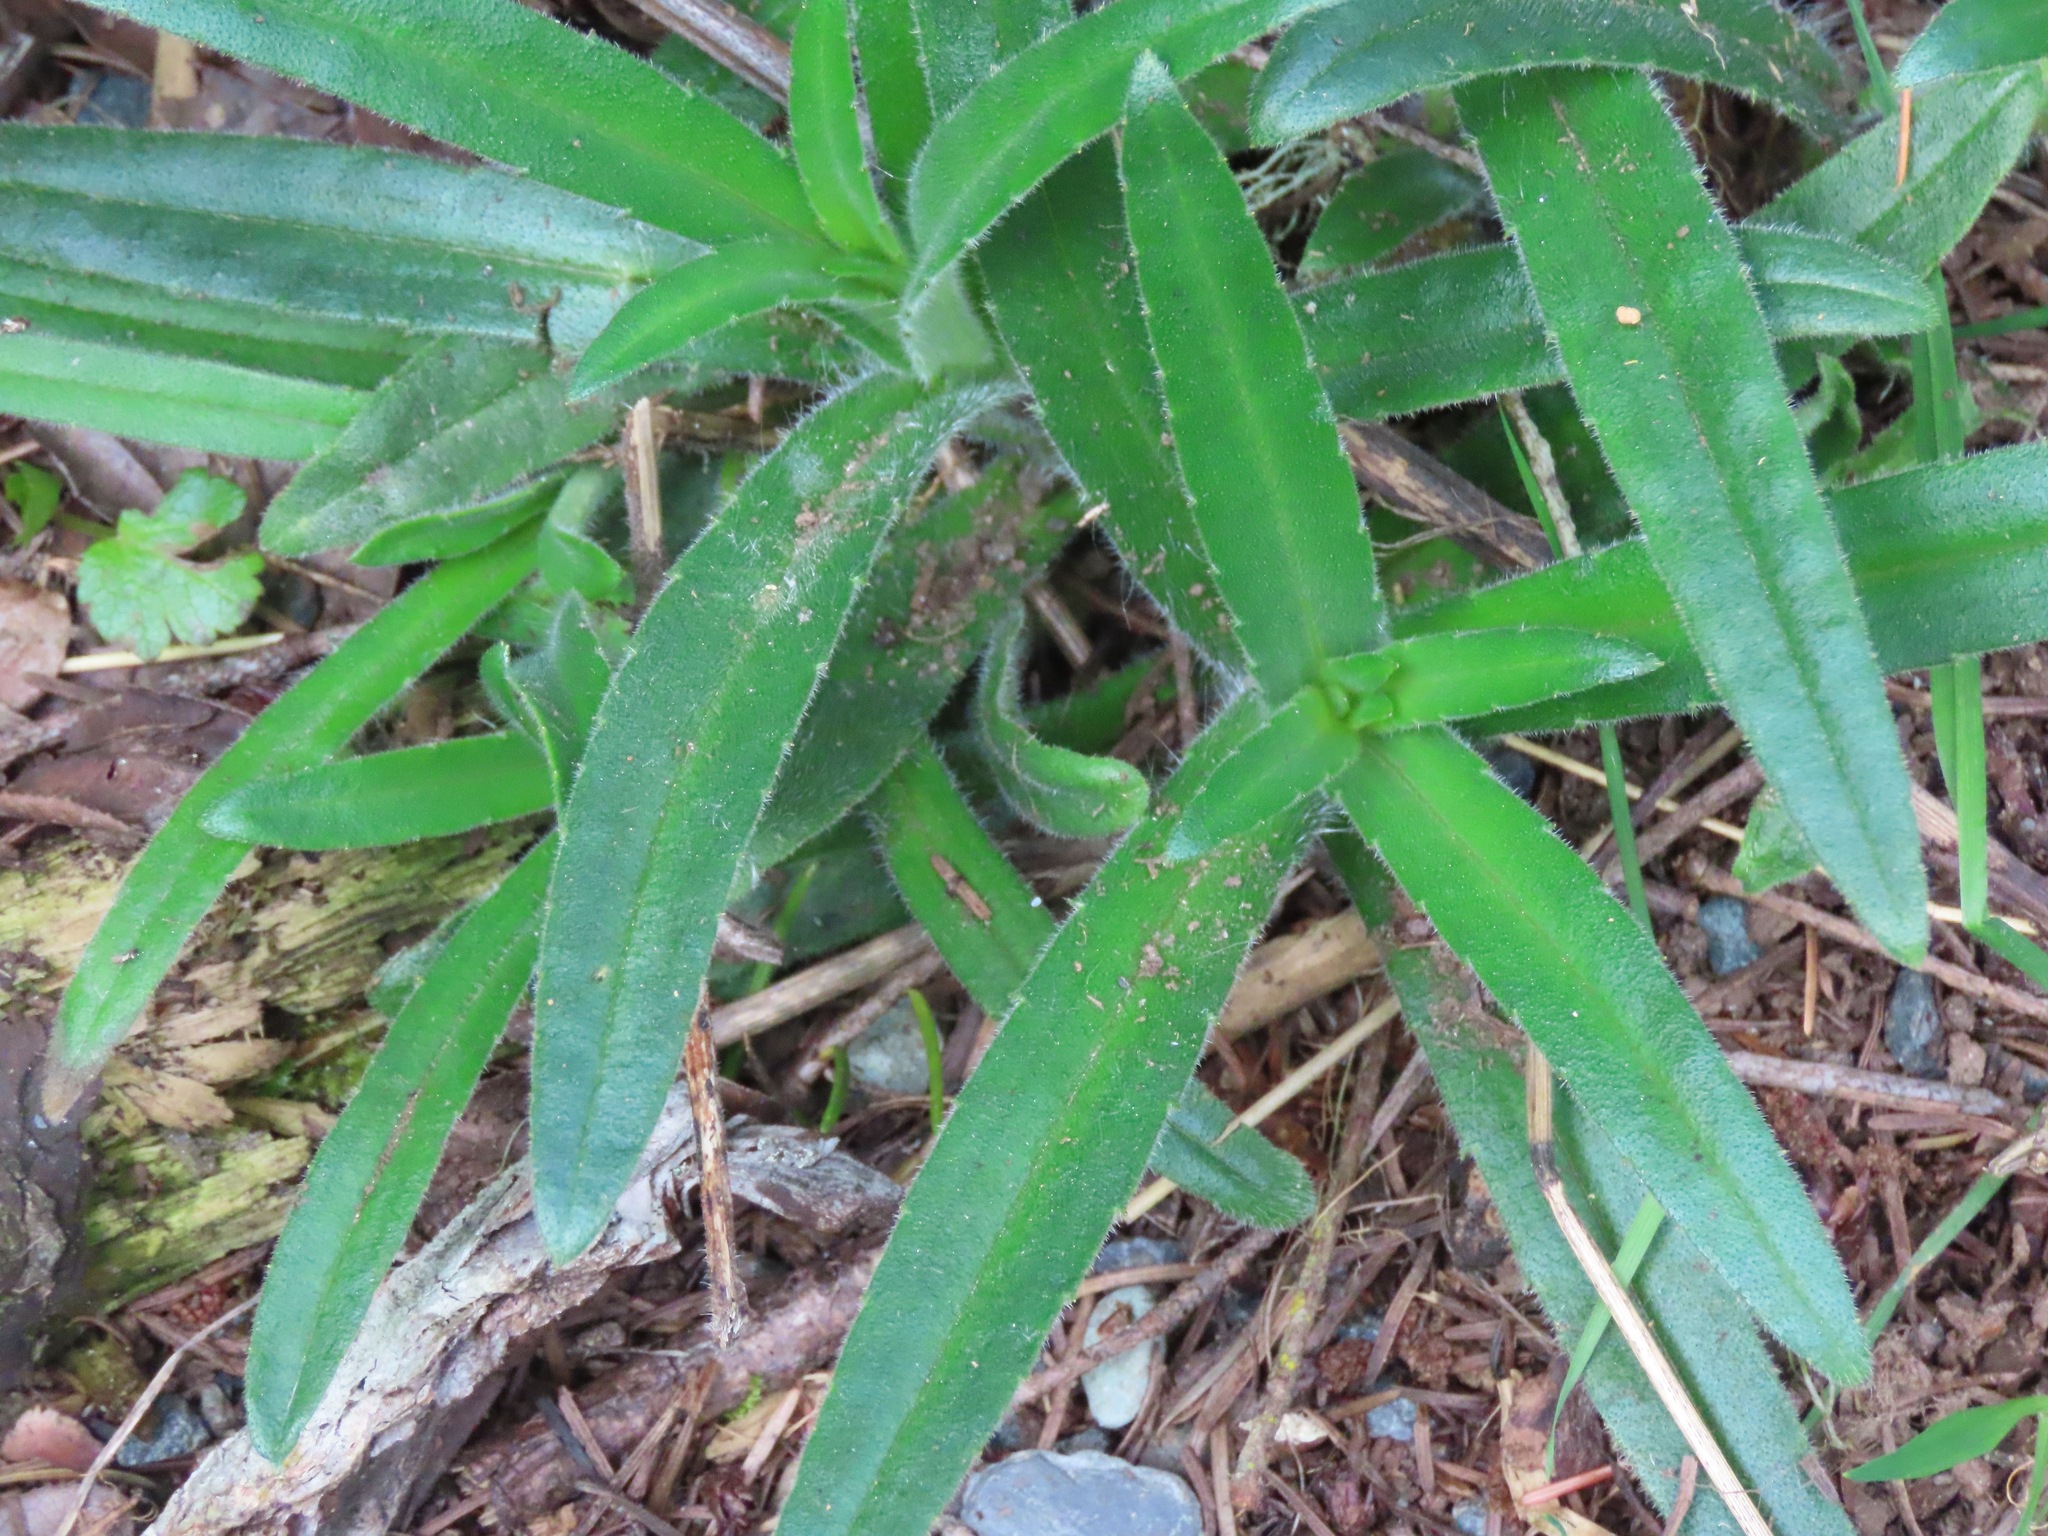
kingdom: Plantae
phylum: Tracheophyta
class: Magnoliopsida
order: Asterales
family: Asteraceae
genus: Anisocarpus
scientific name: Anisocarpus madioides
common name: Woodland madia
